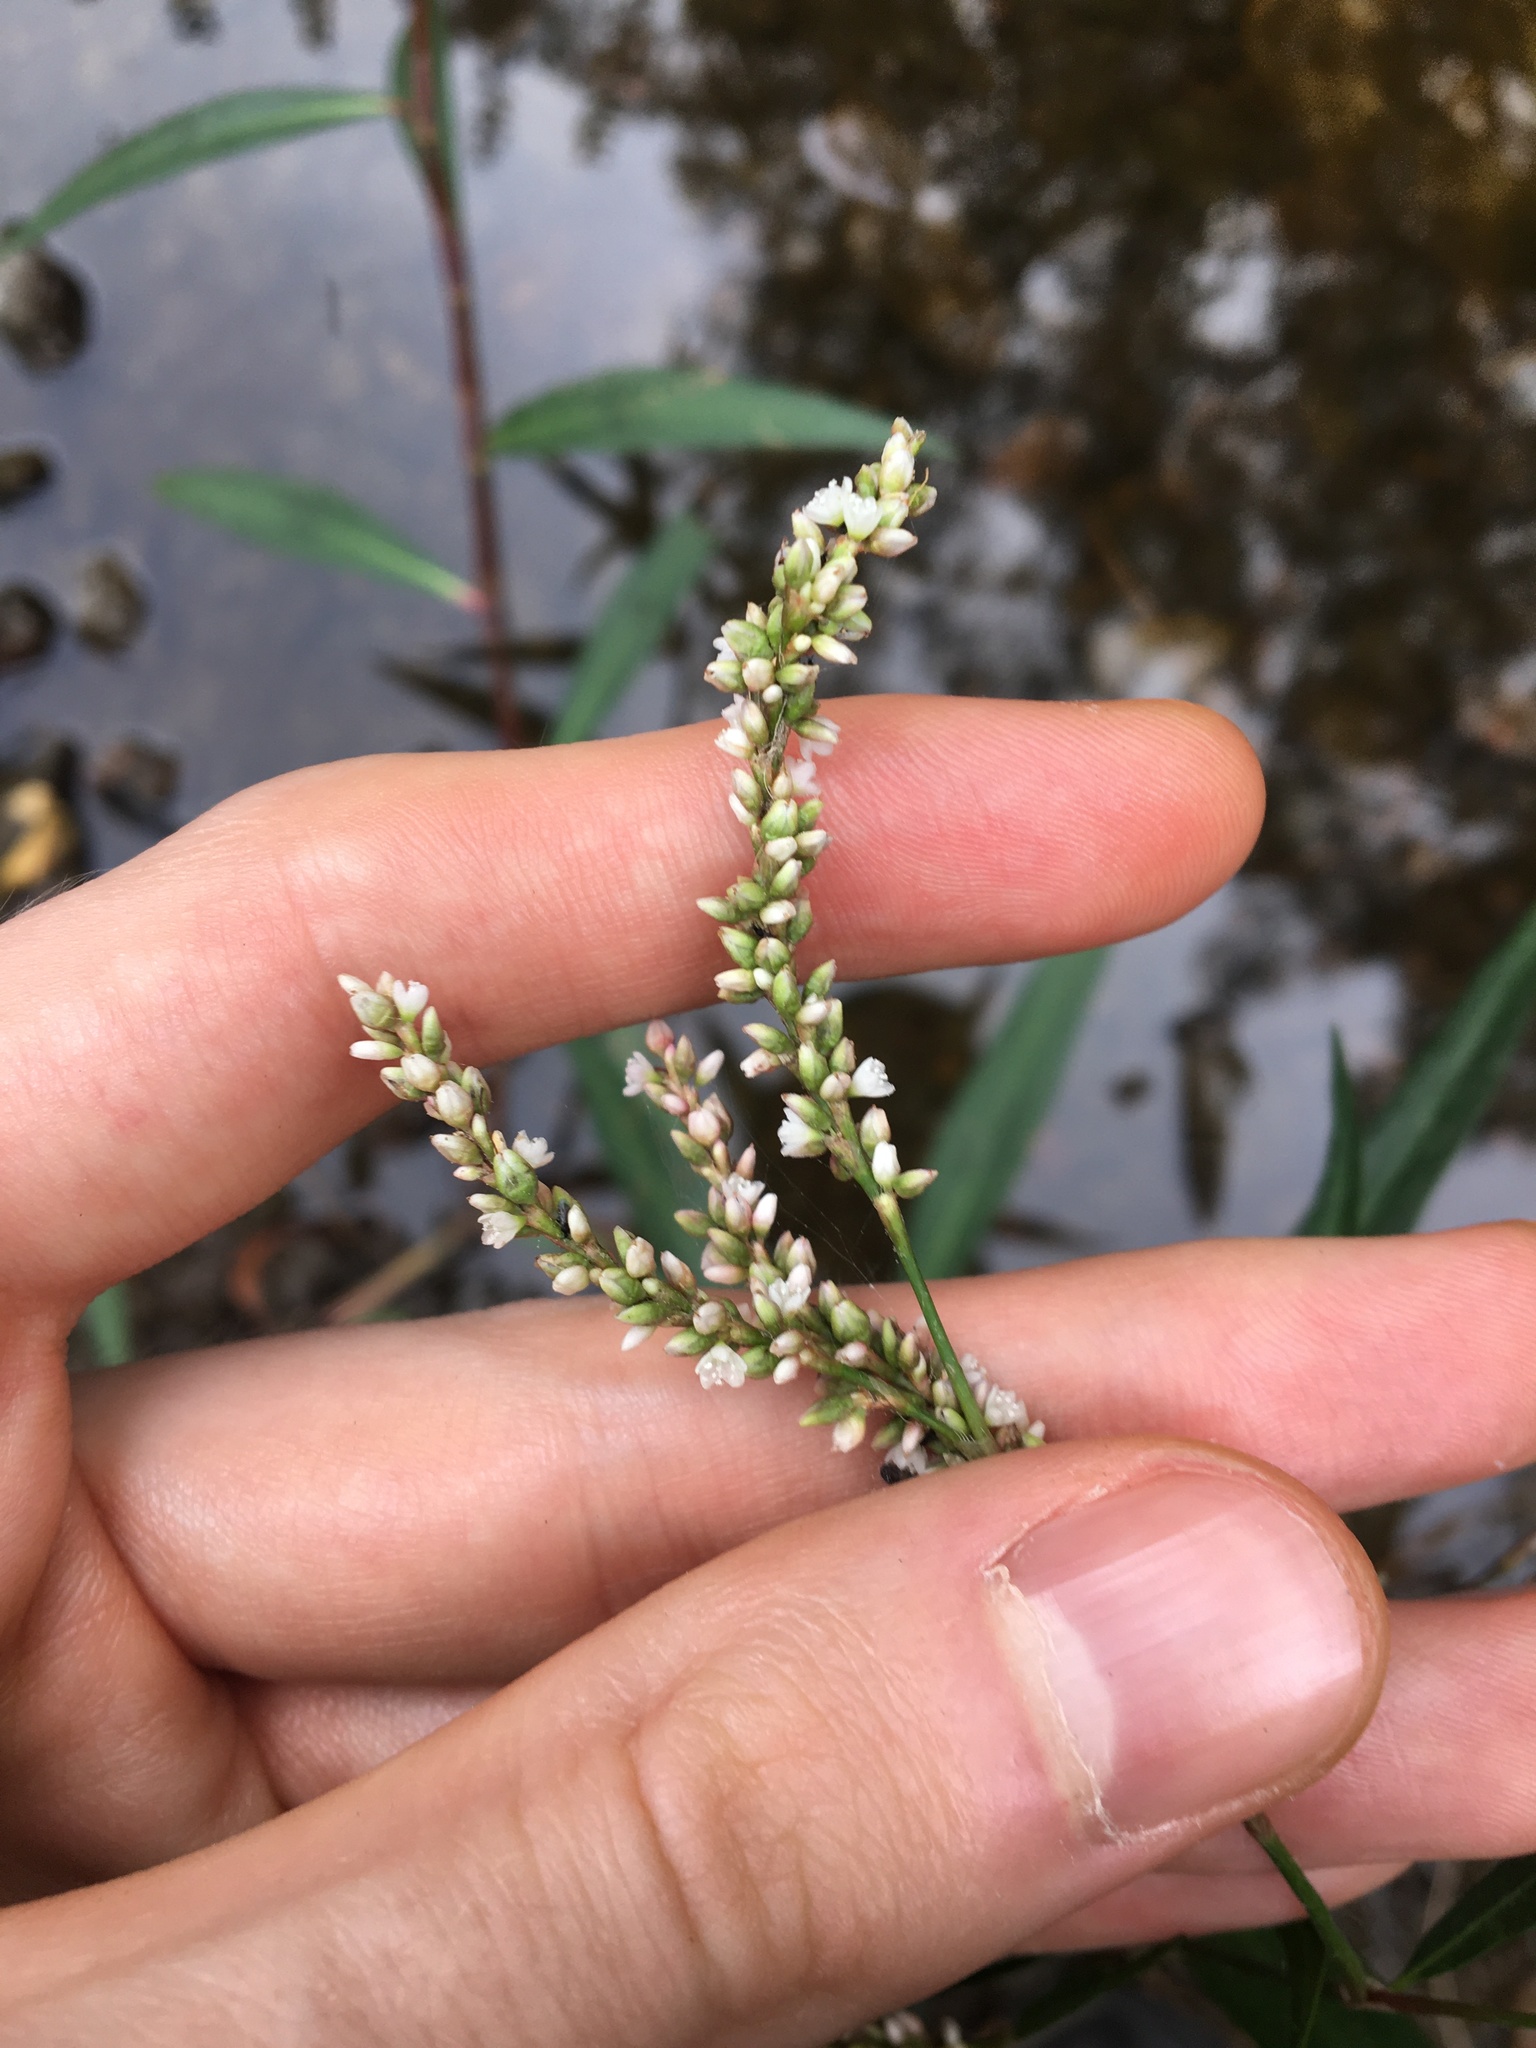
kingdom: Plantae
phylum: Tracheophyta
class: Magnoliopsida
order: Caryophyllales
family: Polygonaceae
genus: Persicaria
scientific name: Persicaria lapathifolia
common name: Curlytop knotweed
